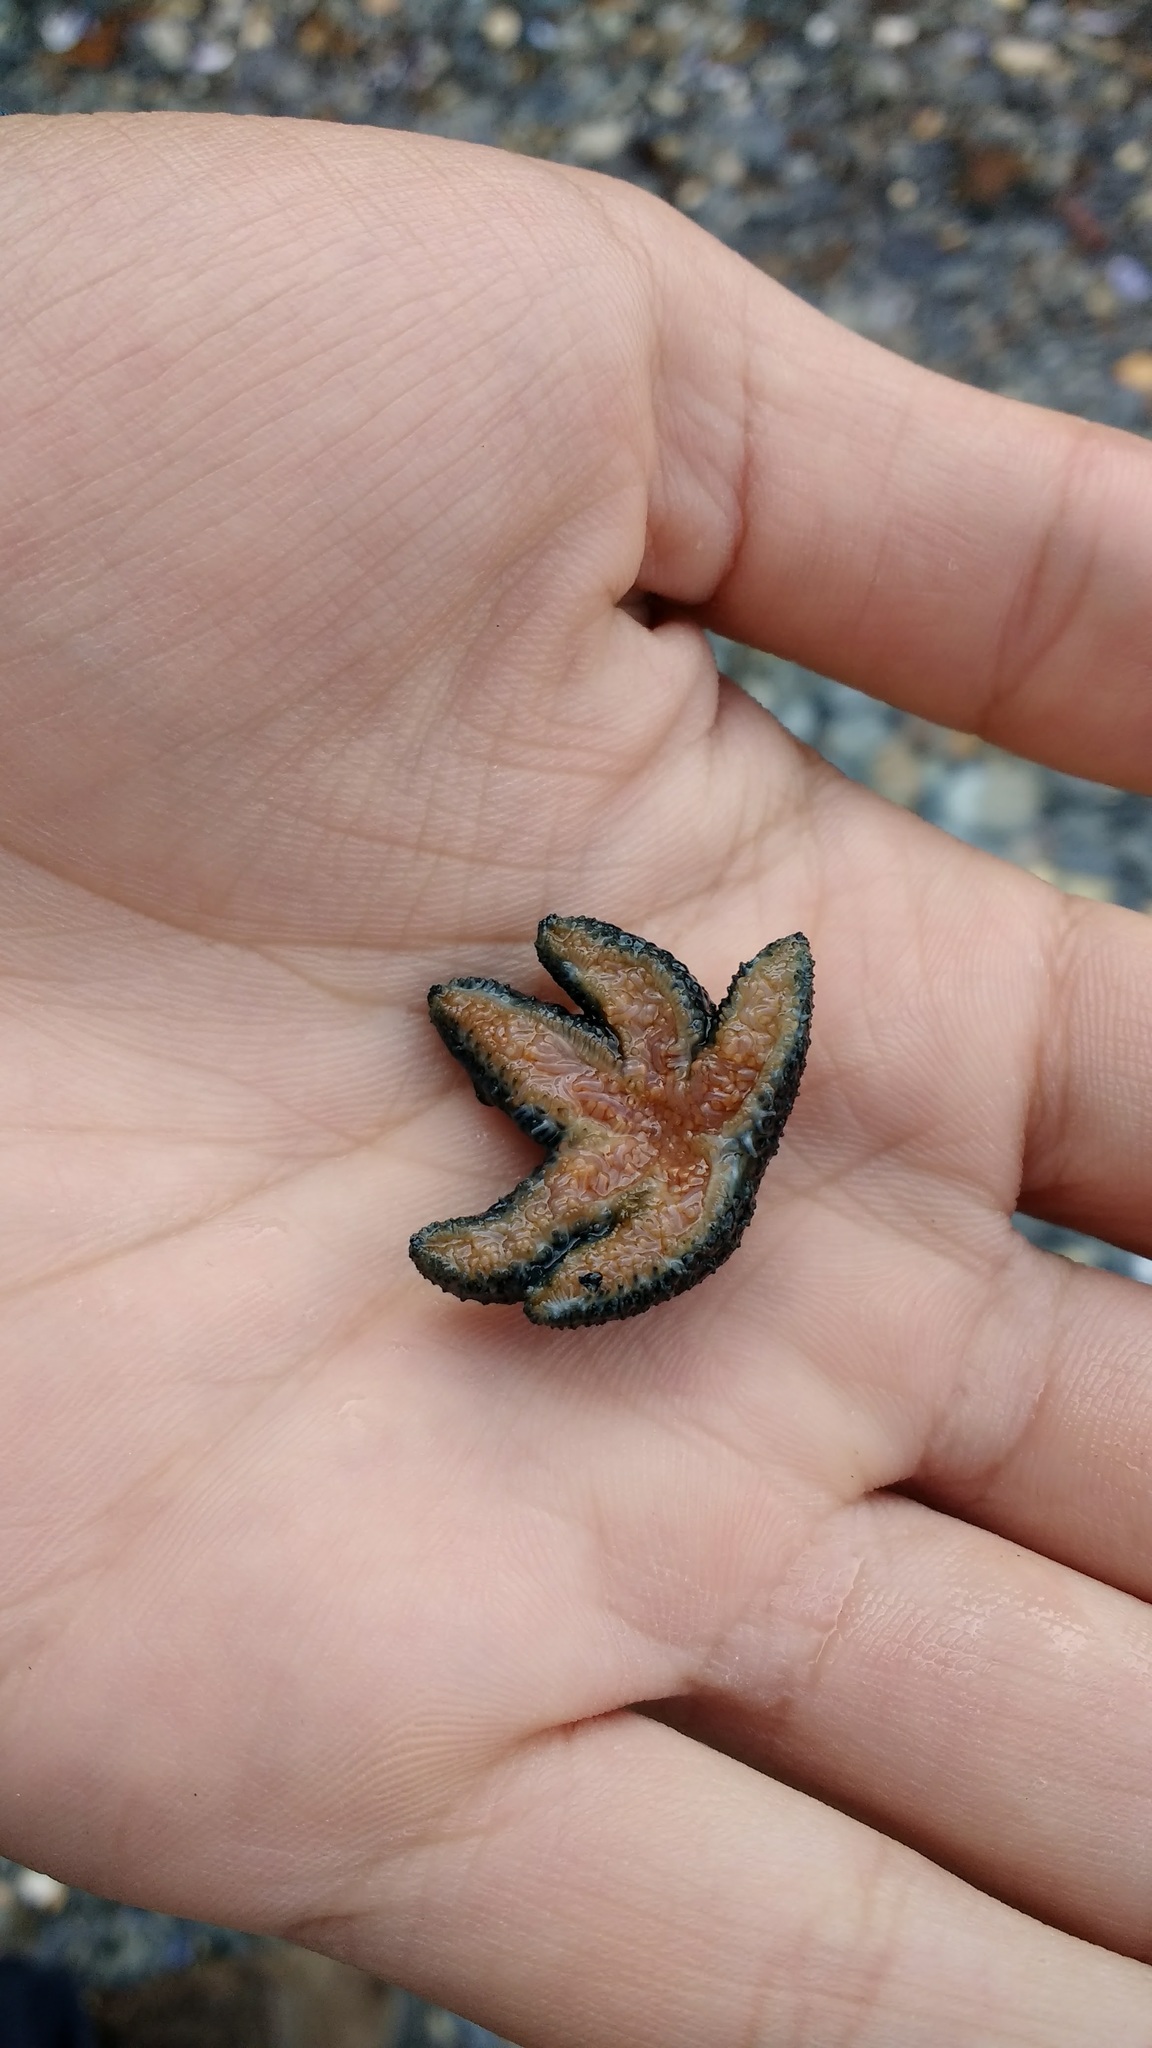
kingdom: Animalia
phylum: Echinodermata
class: Asteroidea
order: Forcipulatida
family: Asteriidae
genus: Anasterias
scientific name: Anasterias antarctica
